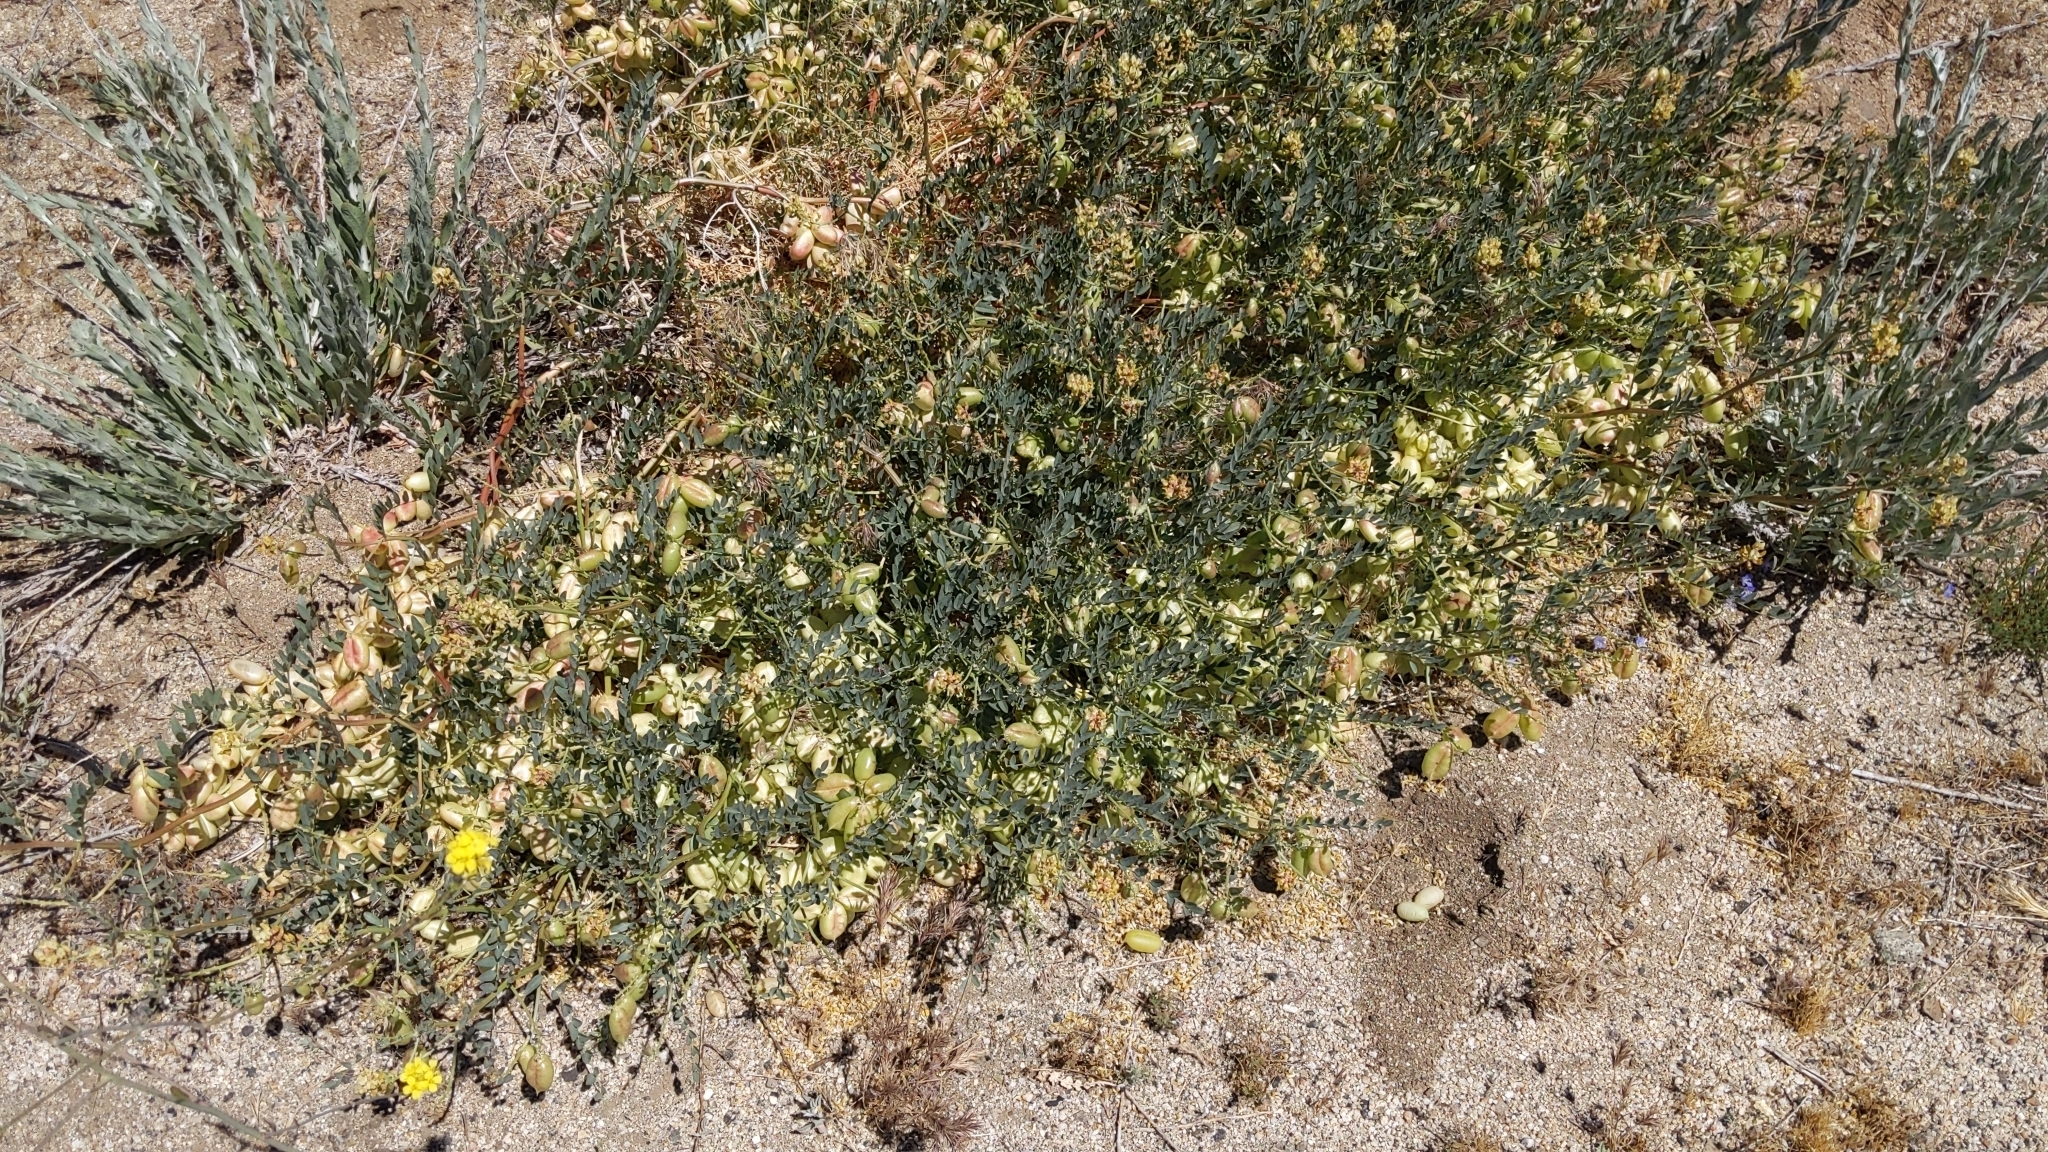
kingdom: Plantae
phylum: Tracheophyta
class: Magnoliopsida
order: Fabales
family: Fabaceae
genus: Astragalus
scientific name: Astragalus douglasii
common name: Jacumba milkvetch
